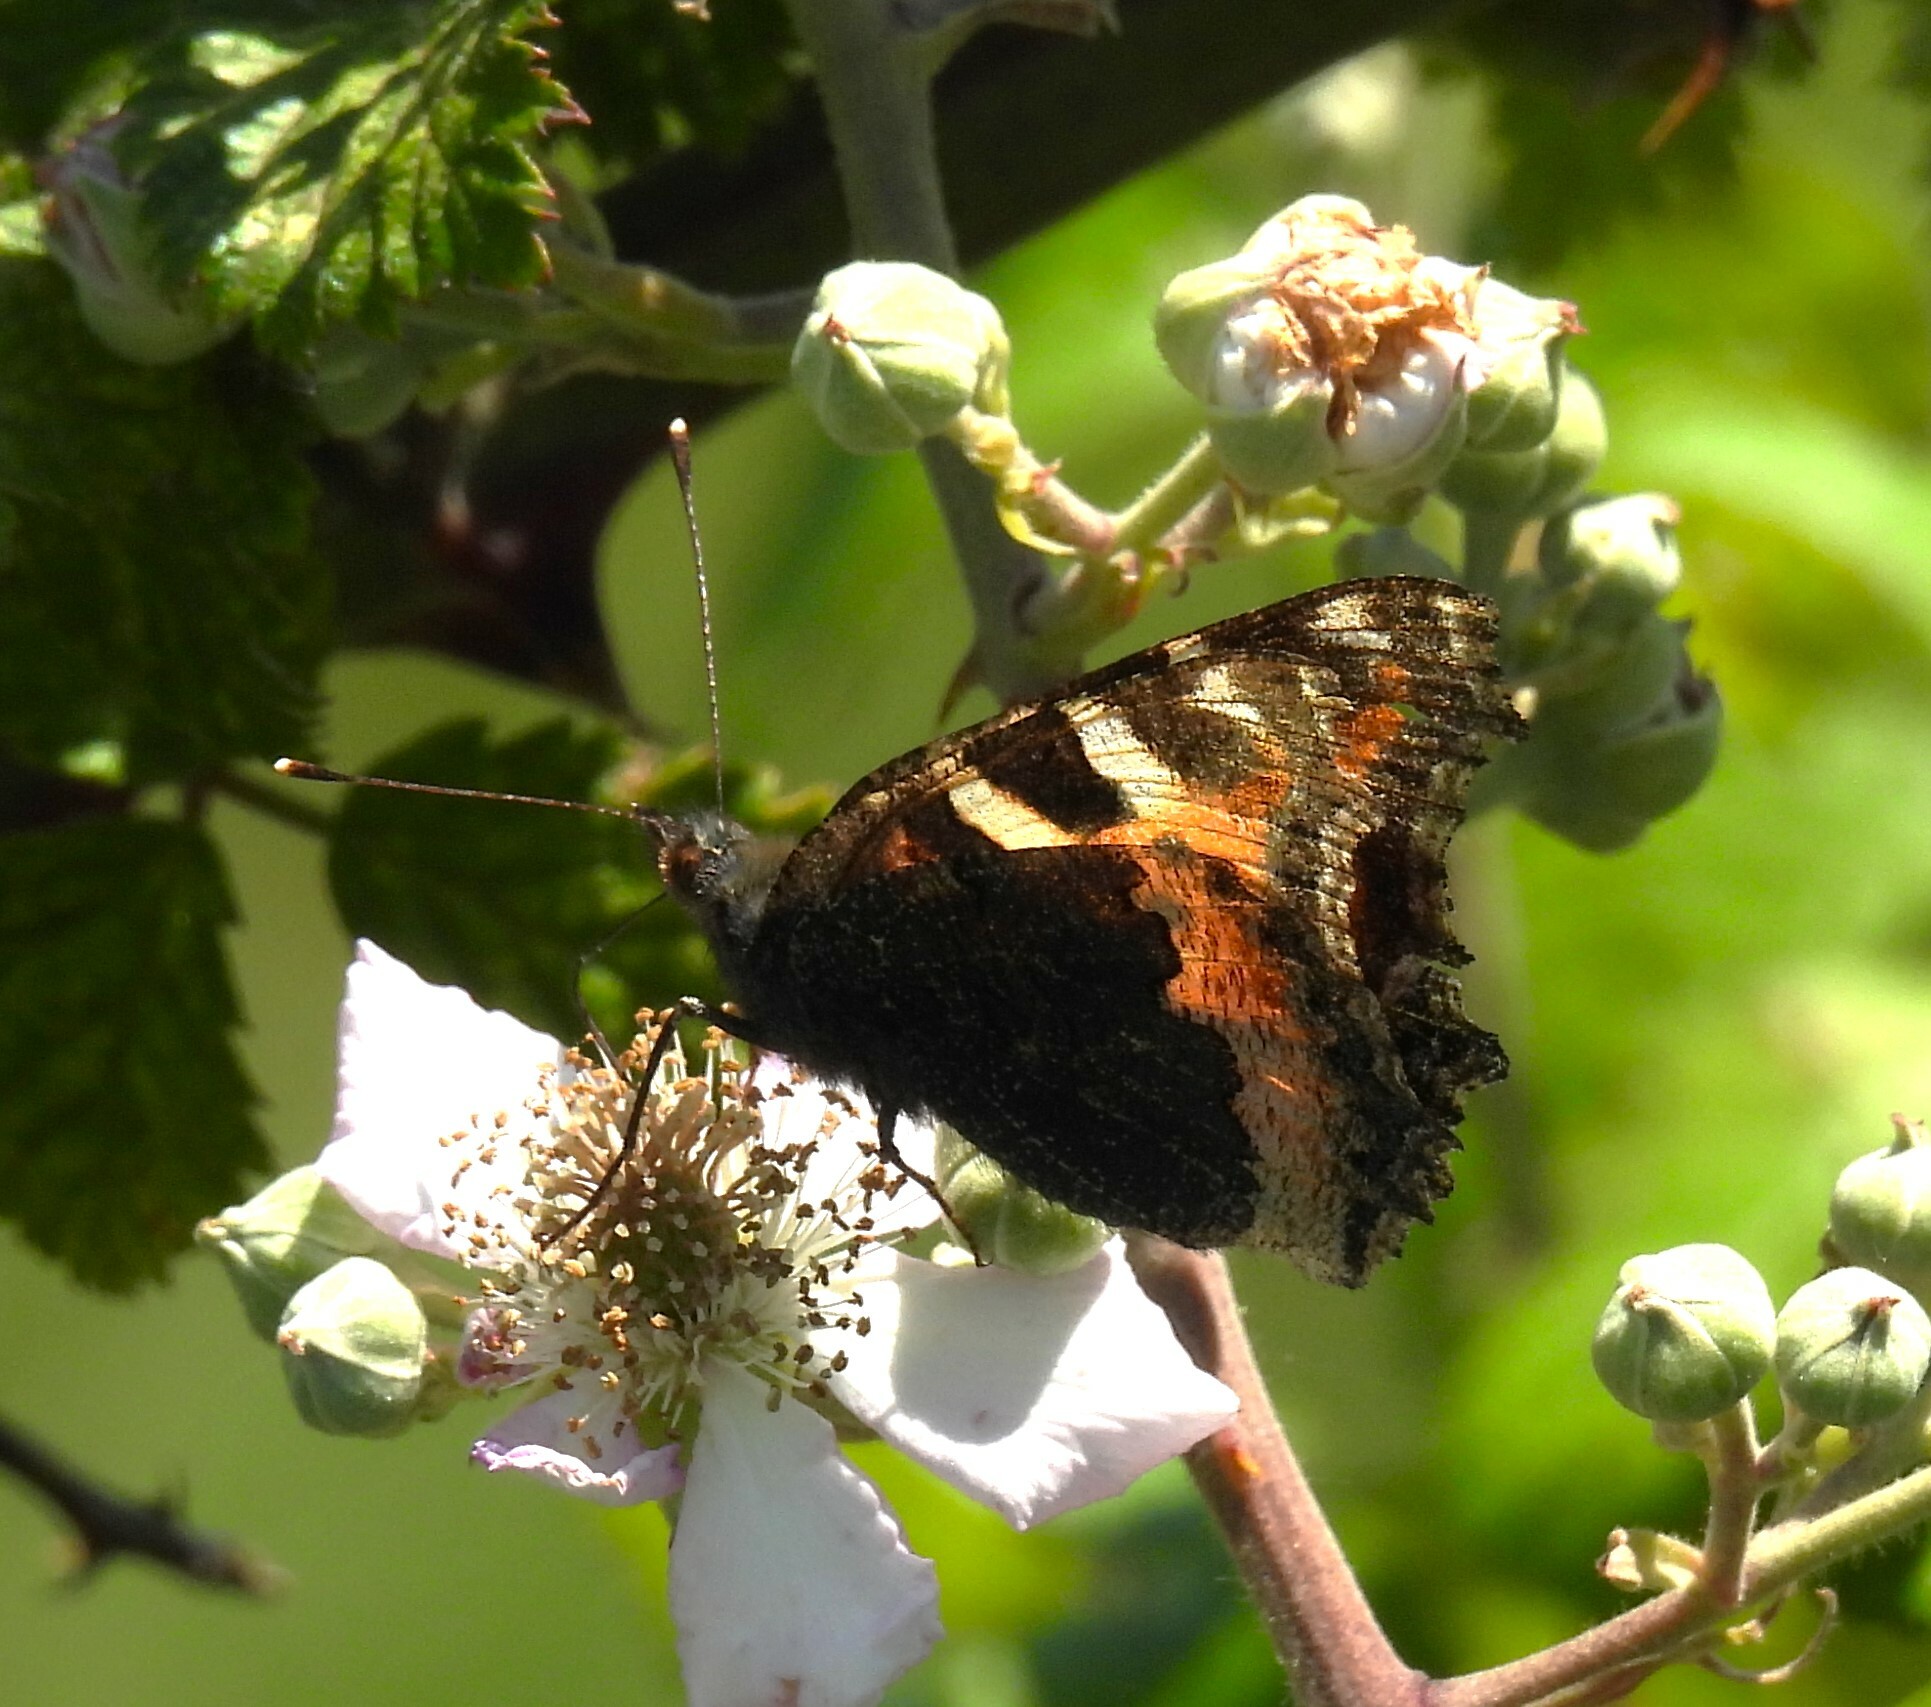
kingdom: Animalia
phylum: Arthropoda
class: Insecta
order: Lepidoptera
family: Nymphalidae
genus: Aglais
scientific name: Aglais urticae
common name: Small tortoiseshell
